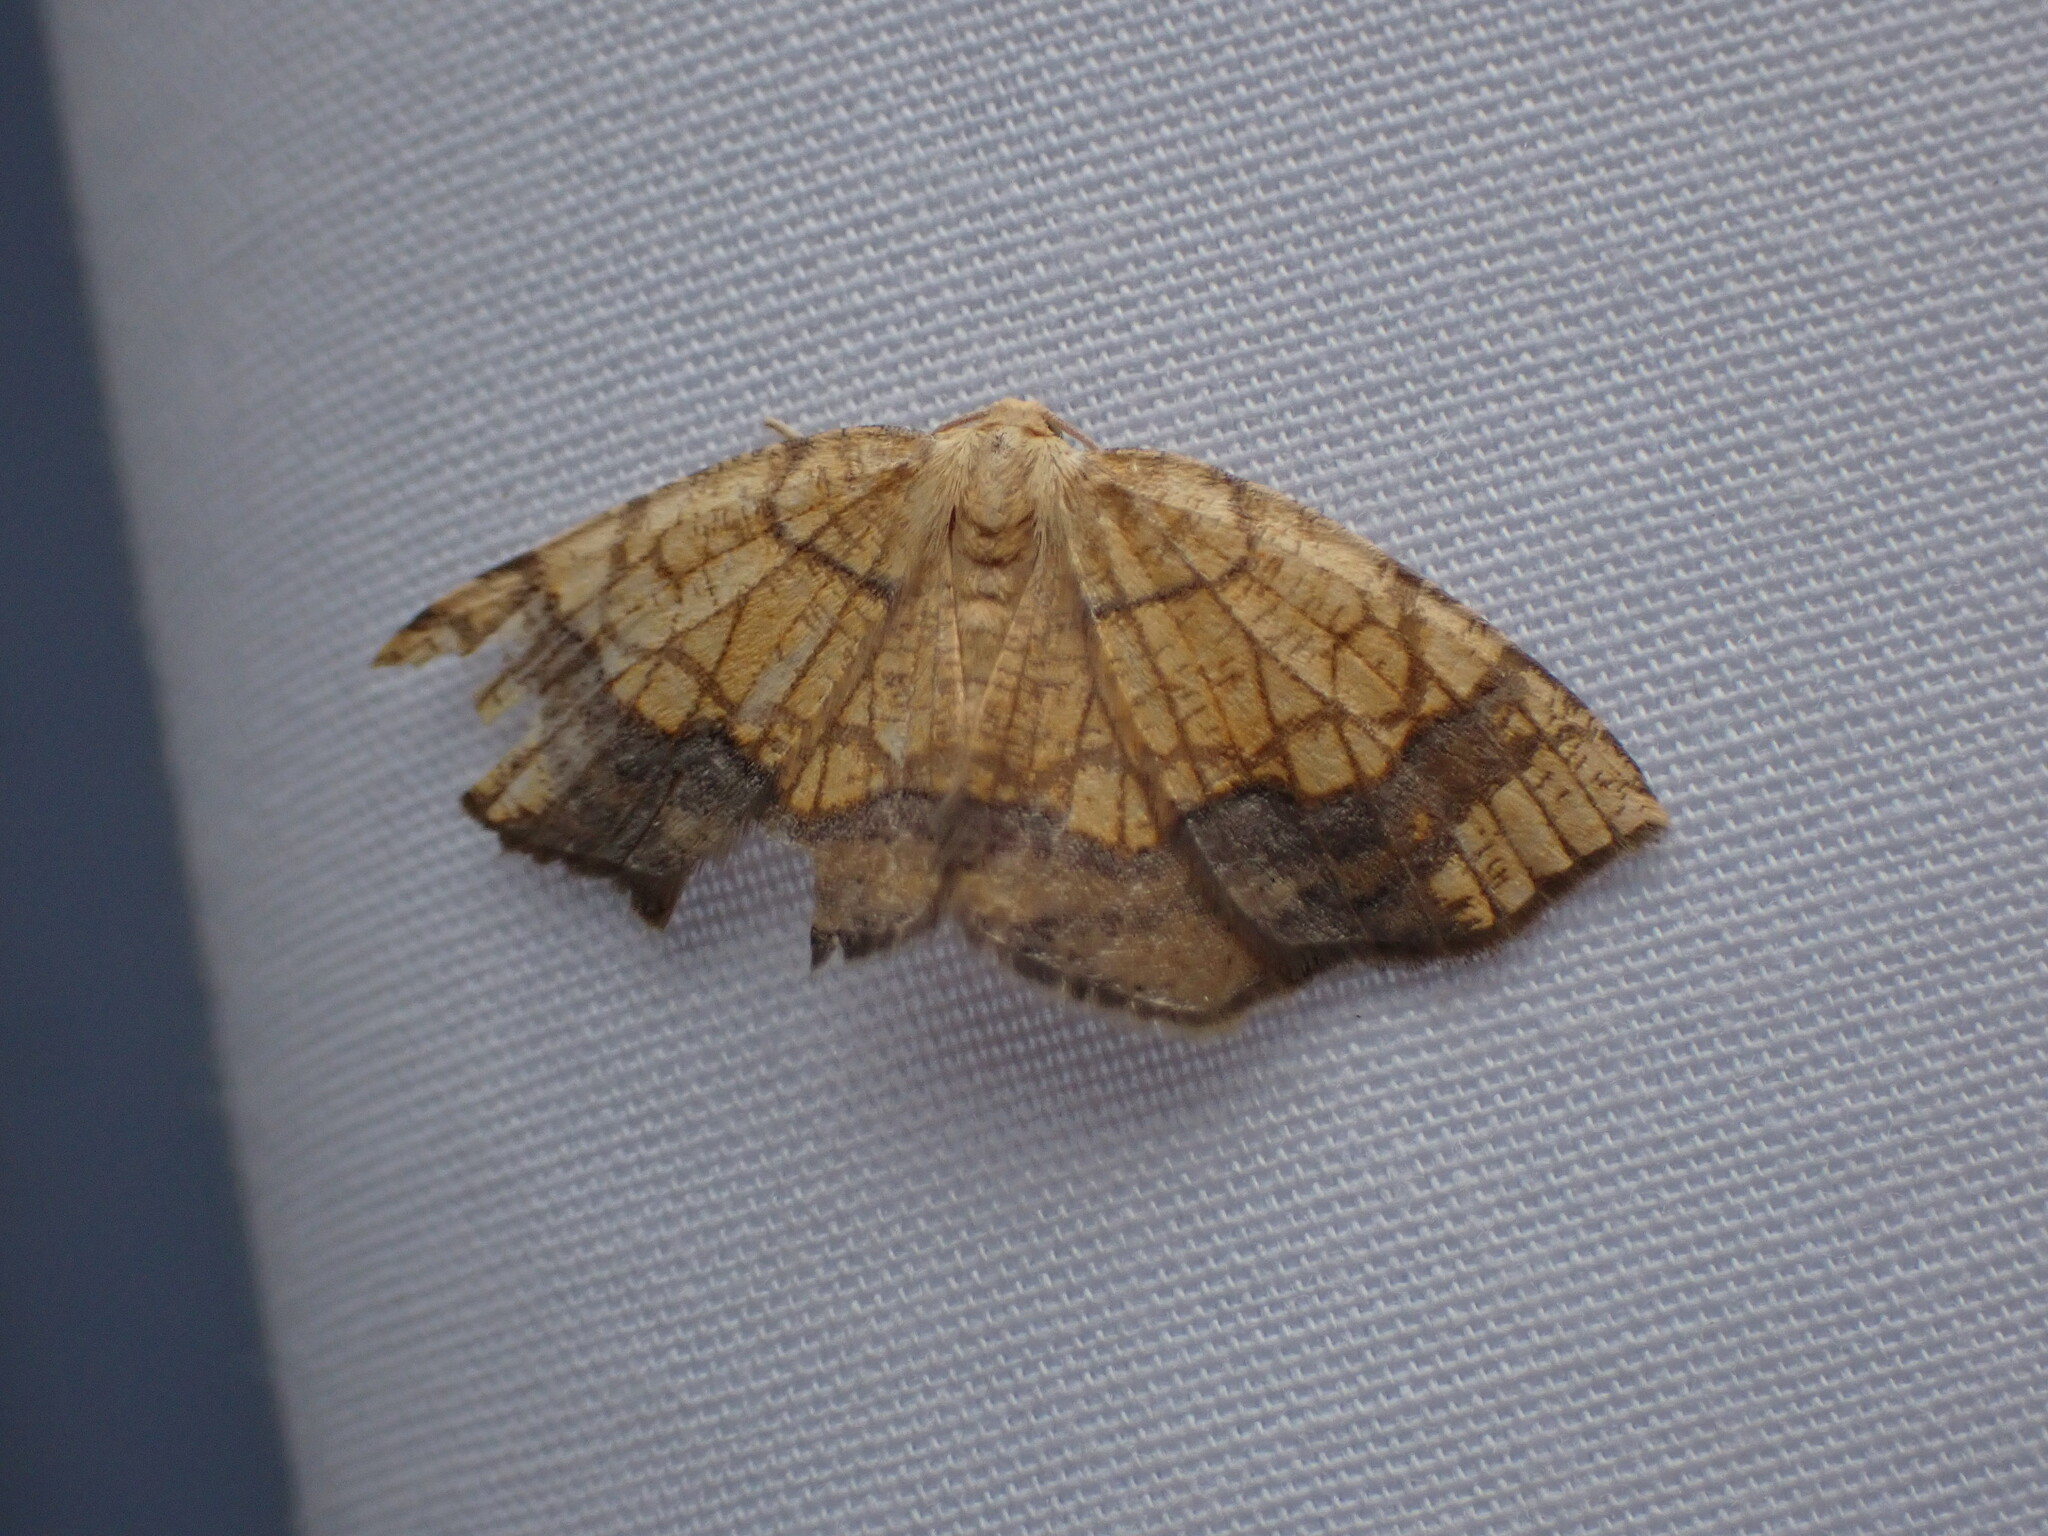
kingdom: Animalia
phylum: Arthropoda
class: Insecta
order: Lepidoptera
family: Geometridae
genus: Nematocampa
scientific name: Nematocampa resistaria
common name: Horned spanworm moth
